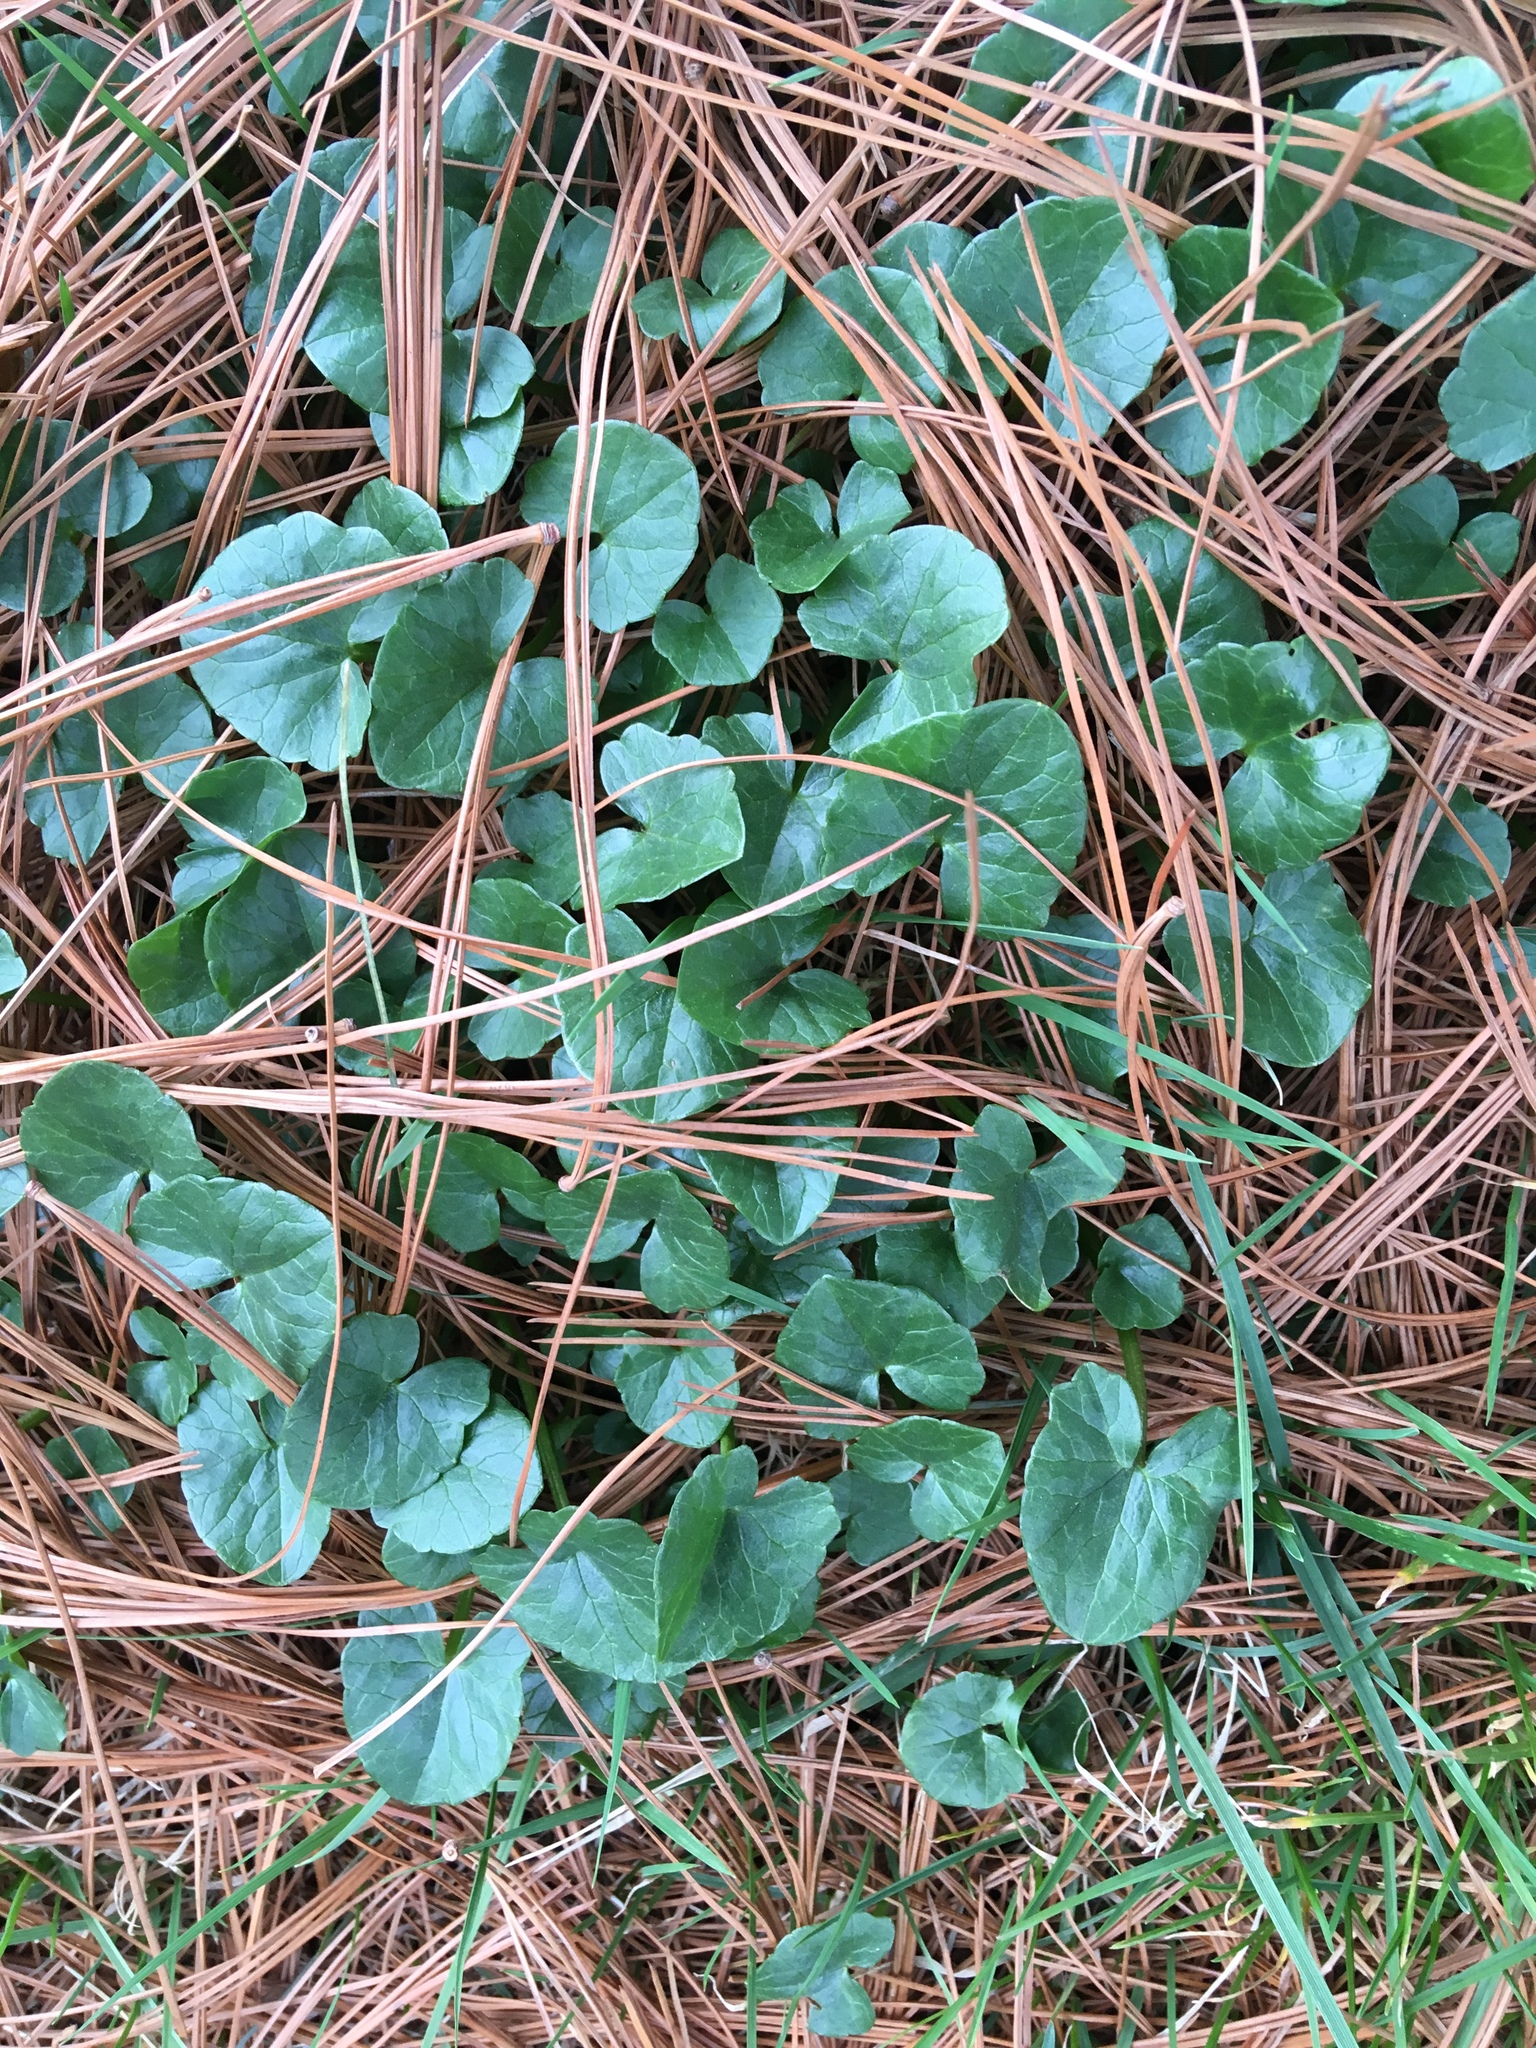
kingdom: Plantae
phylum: Tracheophyta
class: Magnoliopsida
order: Ranunculales
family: Ranunculaceae
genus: Ficaria
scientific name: Ficaria verna
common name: Lesser celandine
